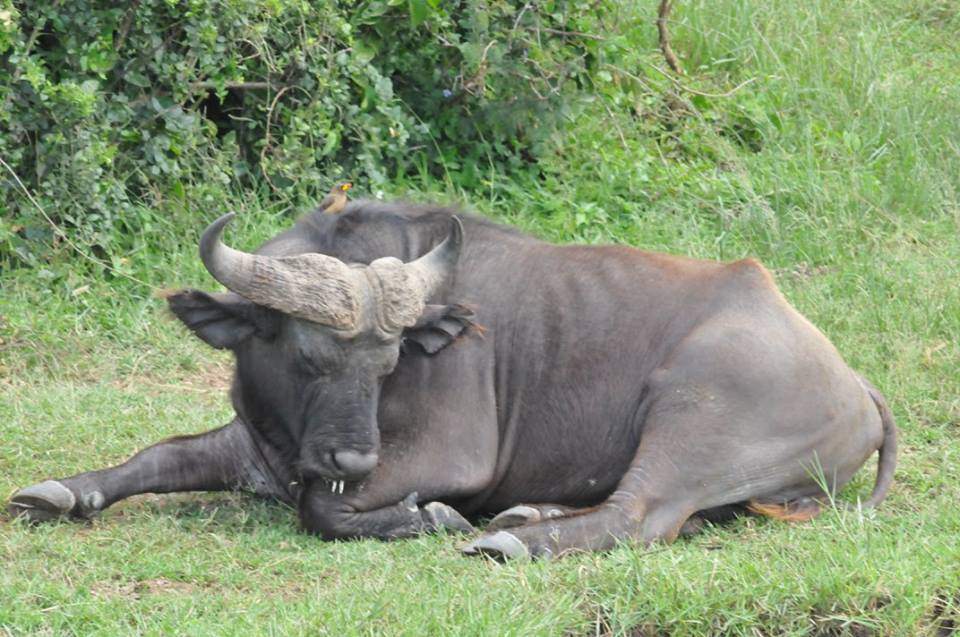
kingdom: Animalia
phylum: Chordata
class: Mammalia
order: Artiodactyla
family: Bovidae
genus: Syncerus
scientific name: Syncerus caffer
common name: African buffalo
